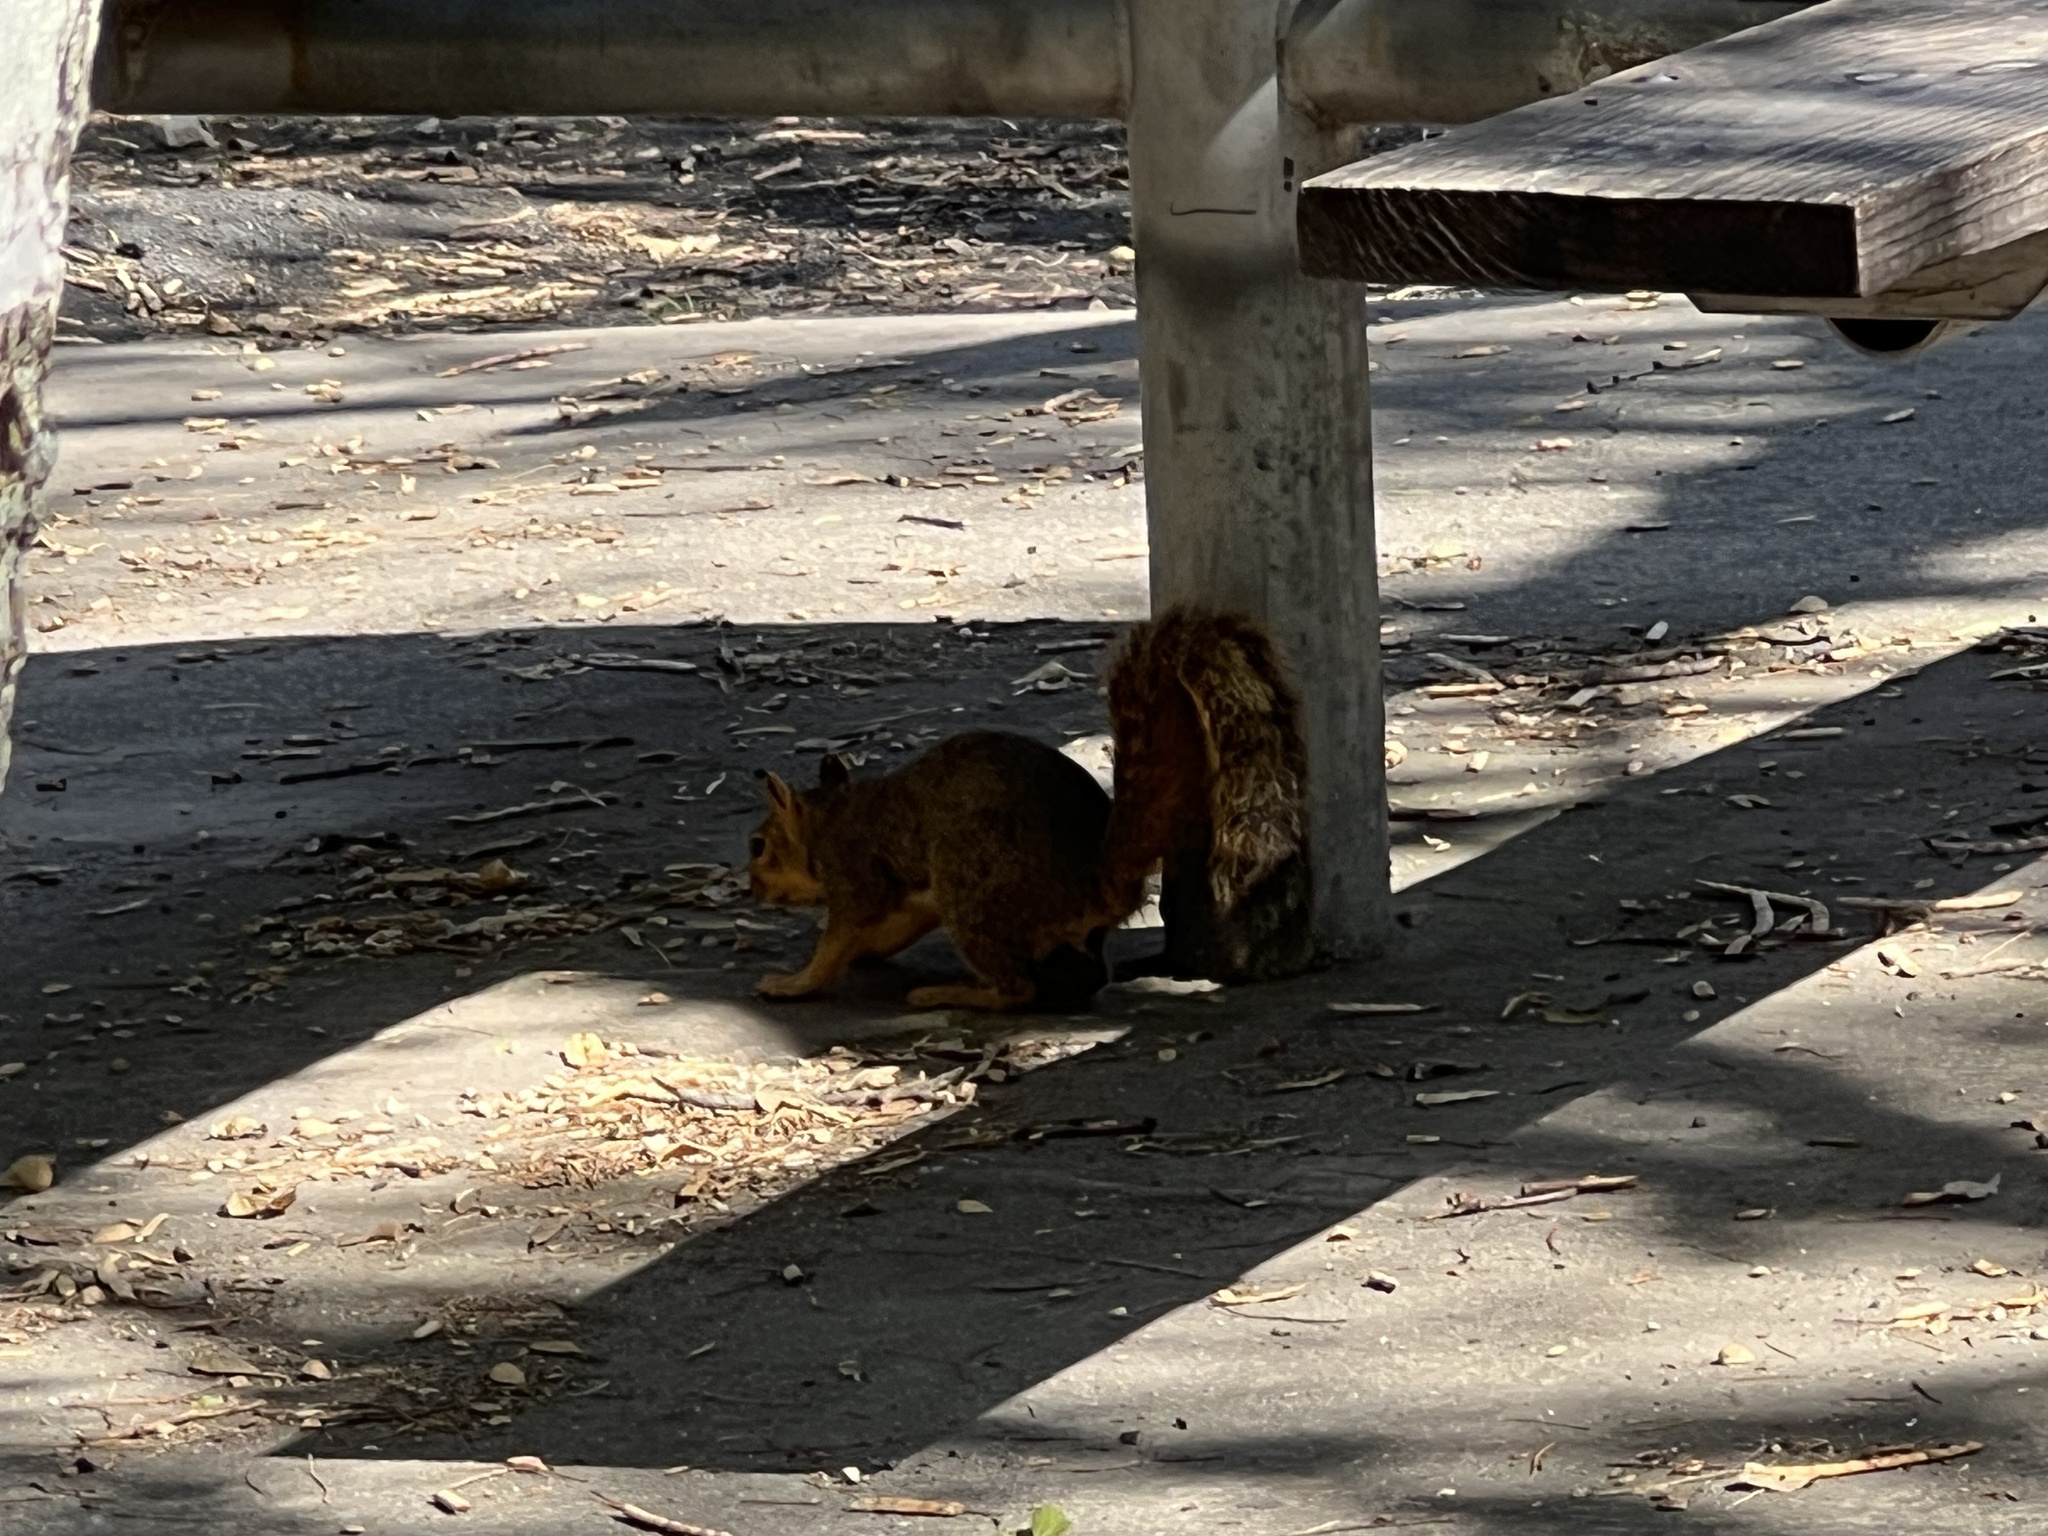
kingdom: Animalia
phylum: Chordata
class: Mammalia
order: Rodentia
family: Sciuridae
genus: Sciurus
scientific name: Sciurus niger
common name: Fox squirrel
